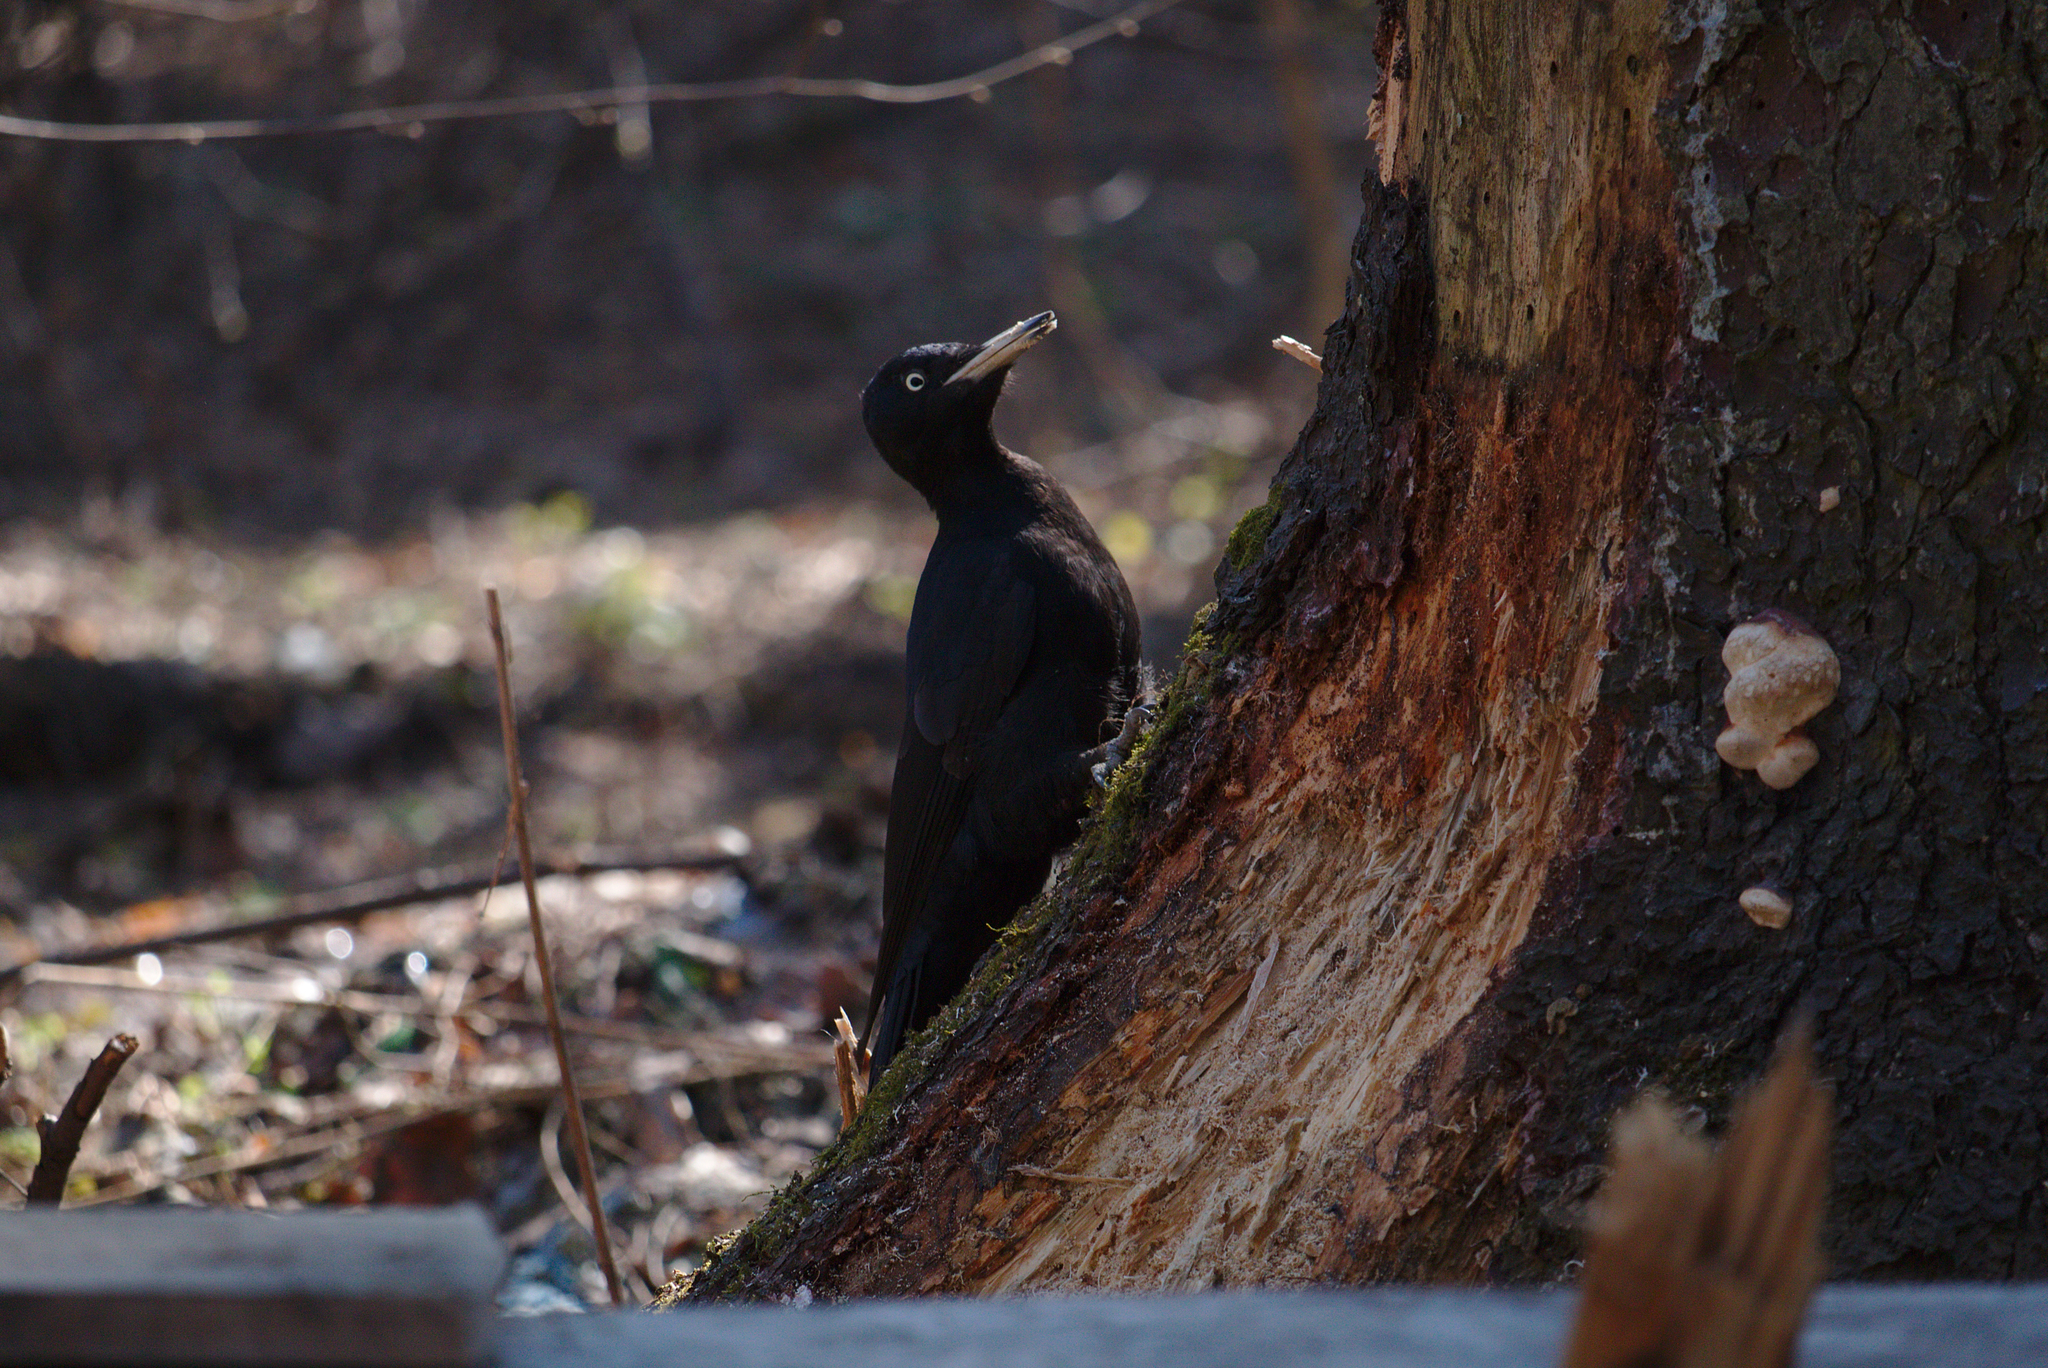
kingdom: Animalia
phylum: Chordata
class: Aves
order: Piciformes
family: Picidae
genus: Dryocopus
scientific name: Dryocopus martius
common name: Black woodpecker
